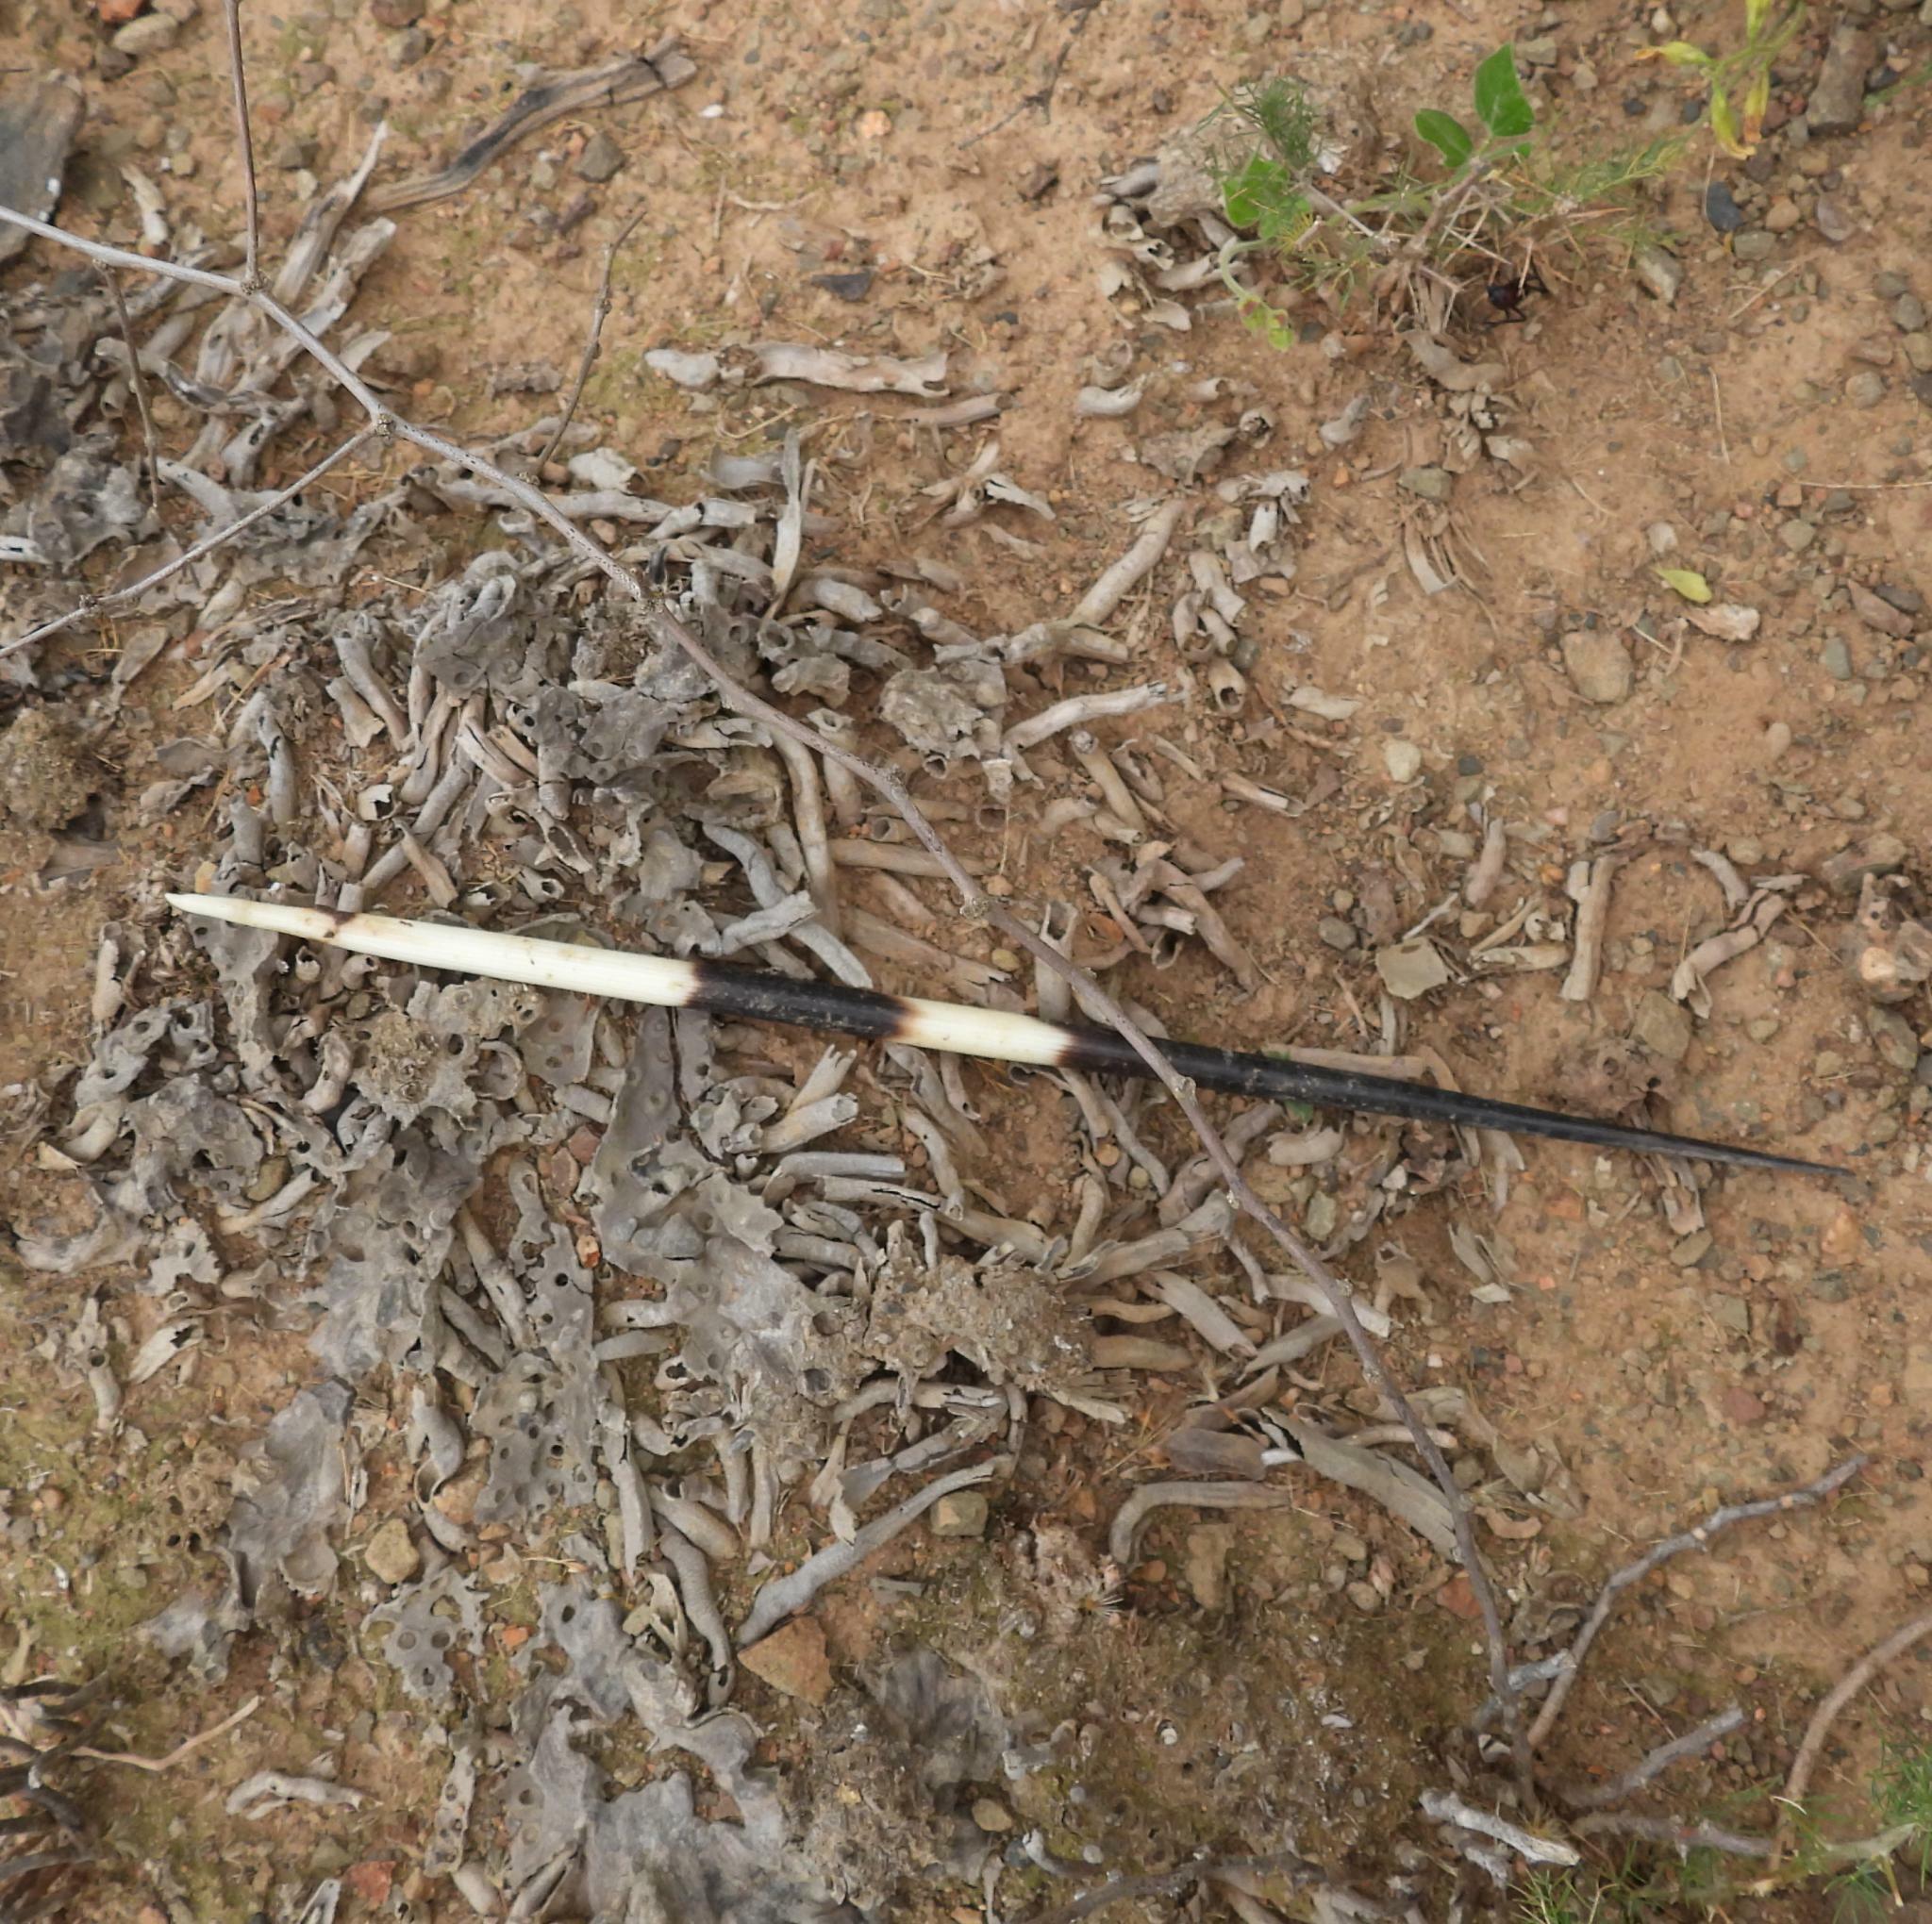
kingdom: Animalia
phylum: Chordata
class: Mammalia
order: Rodentia
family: Hystricidae
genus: Hystrix
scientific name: Hystrix africaeaustralis
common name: Cape porcupine
